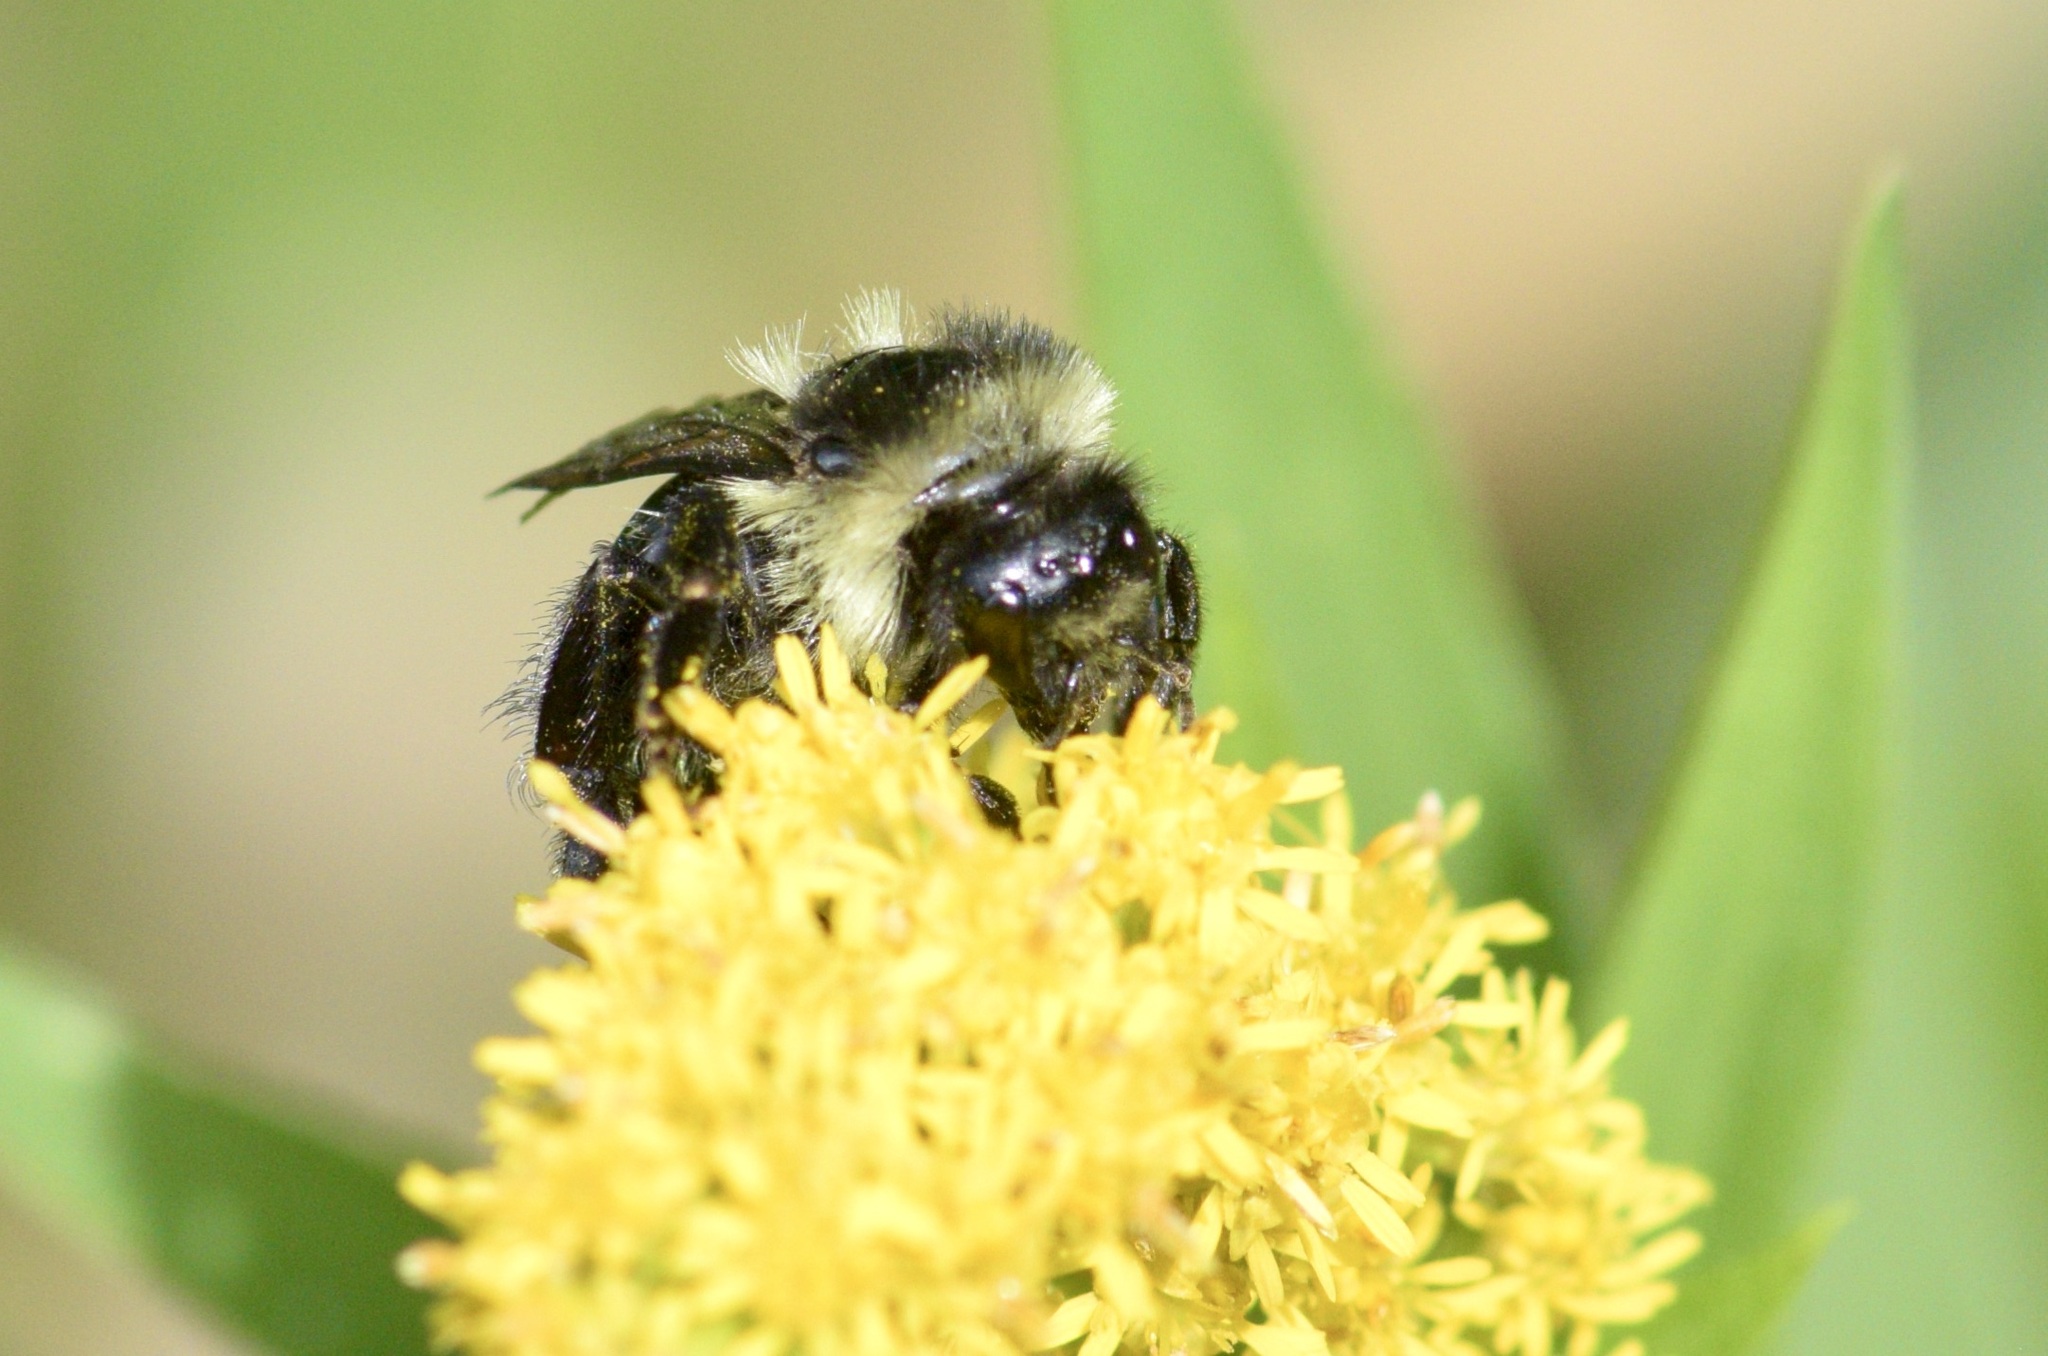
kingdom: Animalia
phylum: Arthropoda
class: Insecta
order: Hymenoptera
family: Apidae
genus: Bombus
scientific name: Bombus impatiens
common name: Common eastern bumble bee
